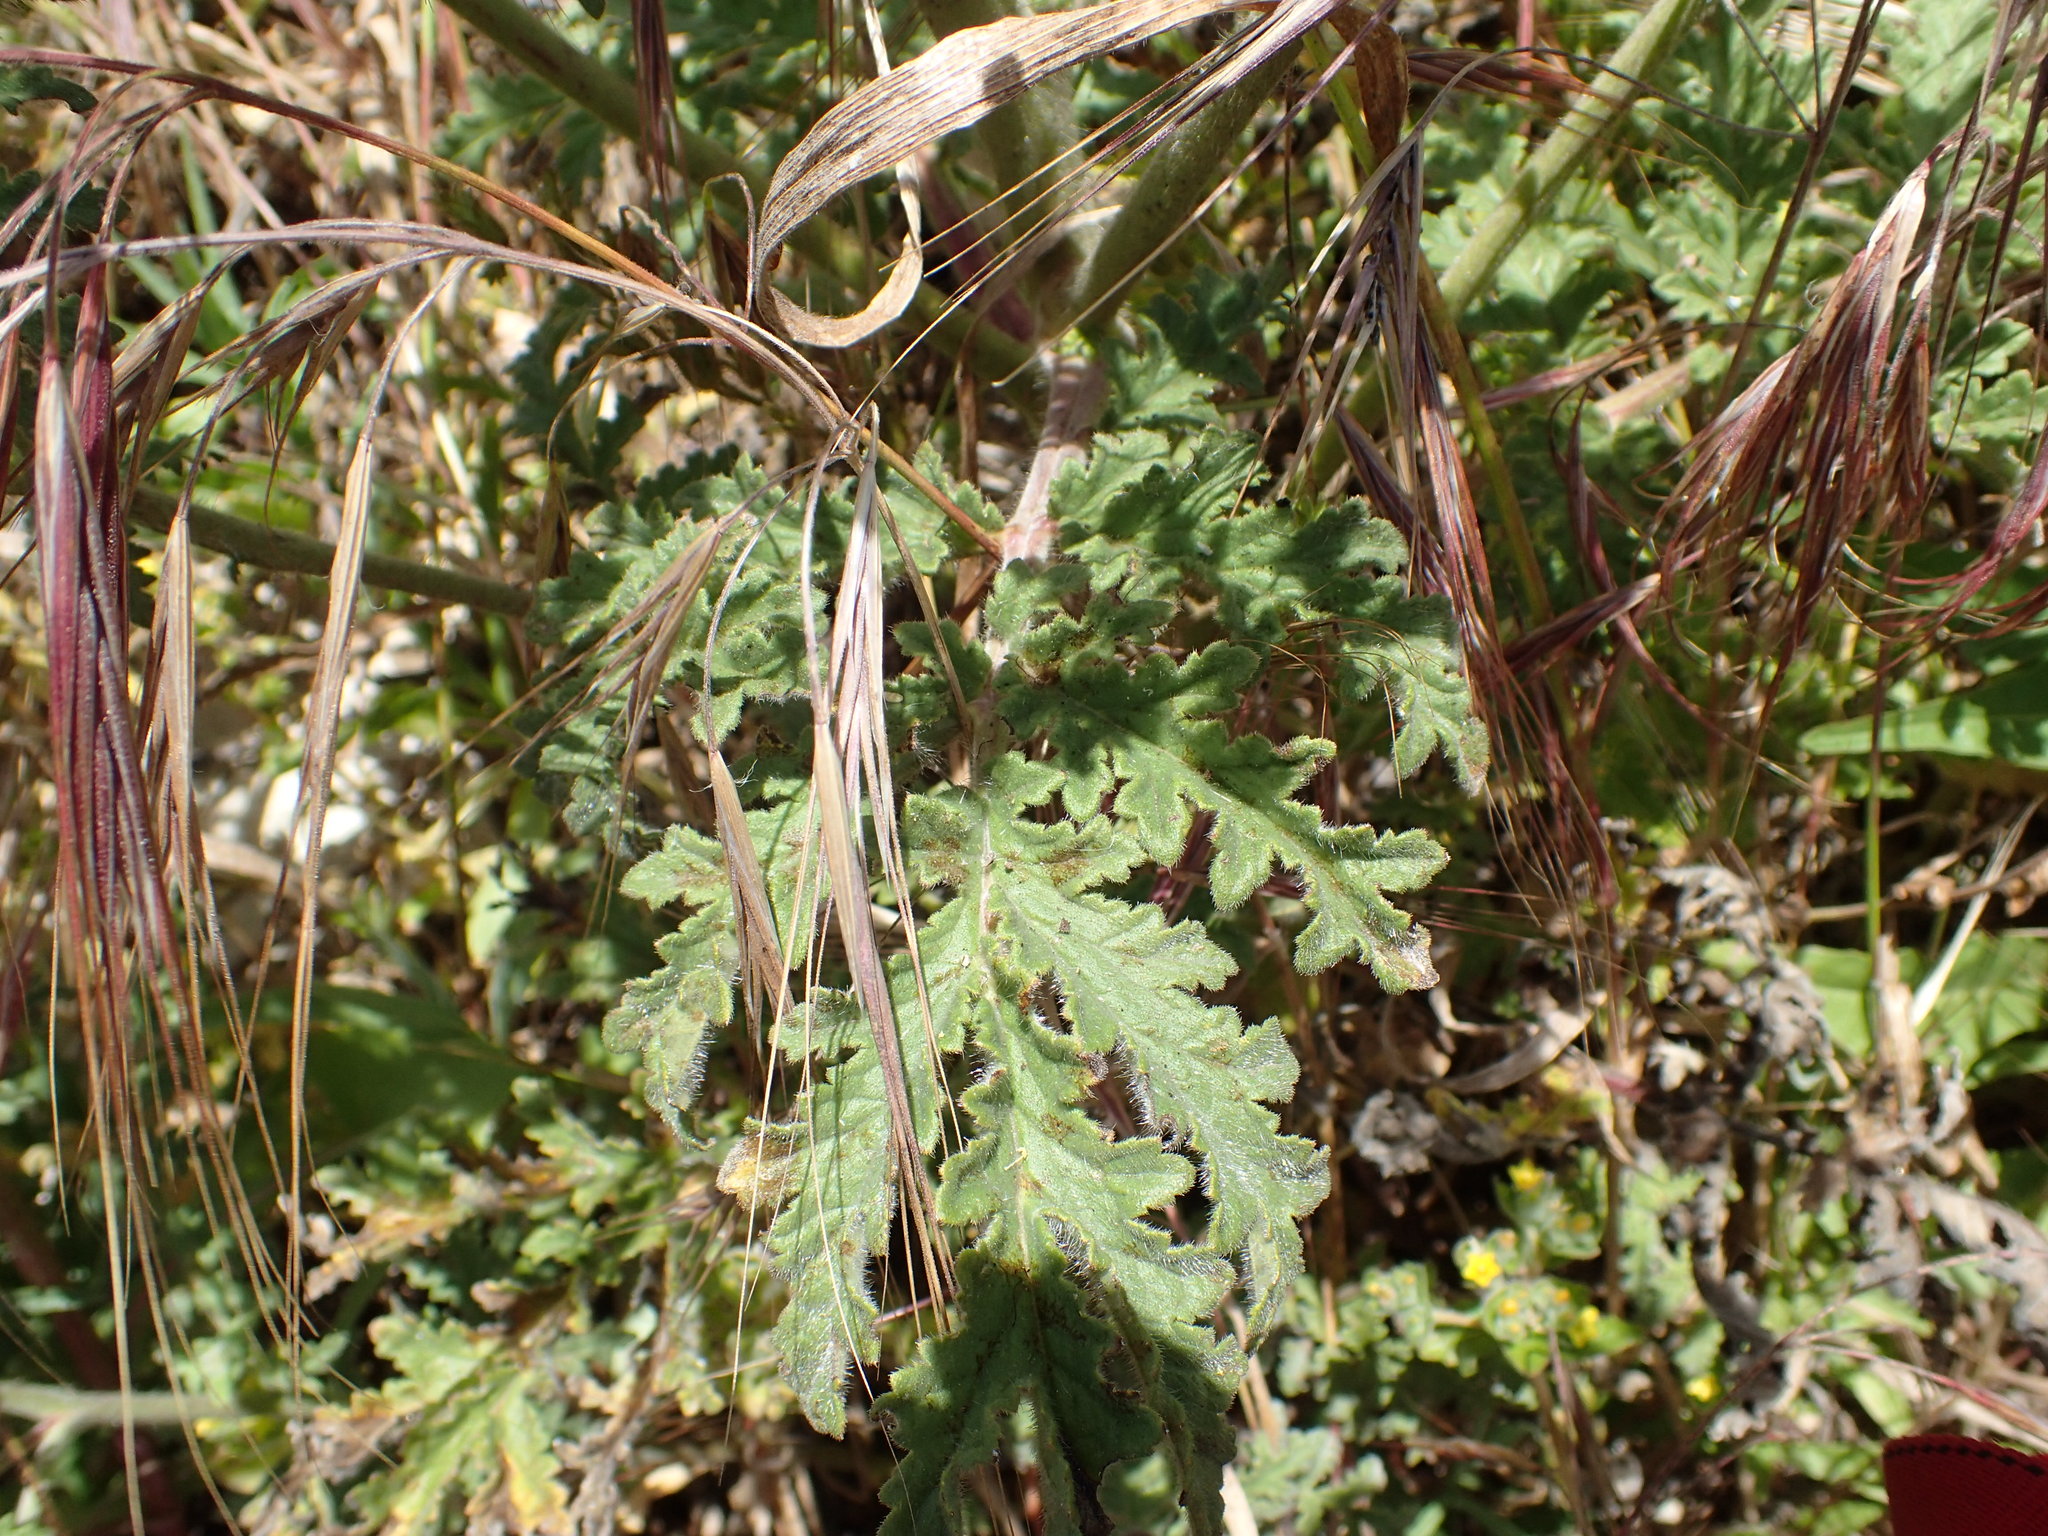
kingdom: Plantae
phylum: Tracheophyta
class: Magnoliopsida
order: Boraginales
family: Hydrophyllaceae
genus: Phacelia
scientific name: Phacelia hubbyi
